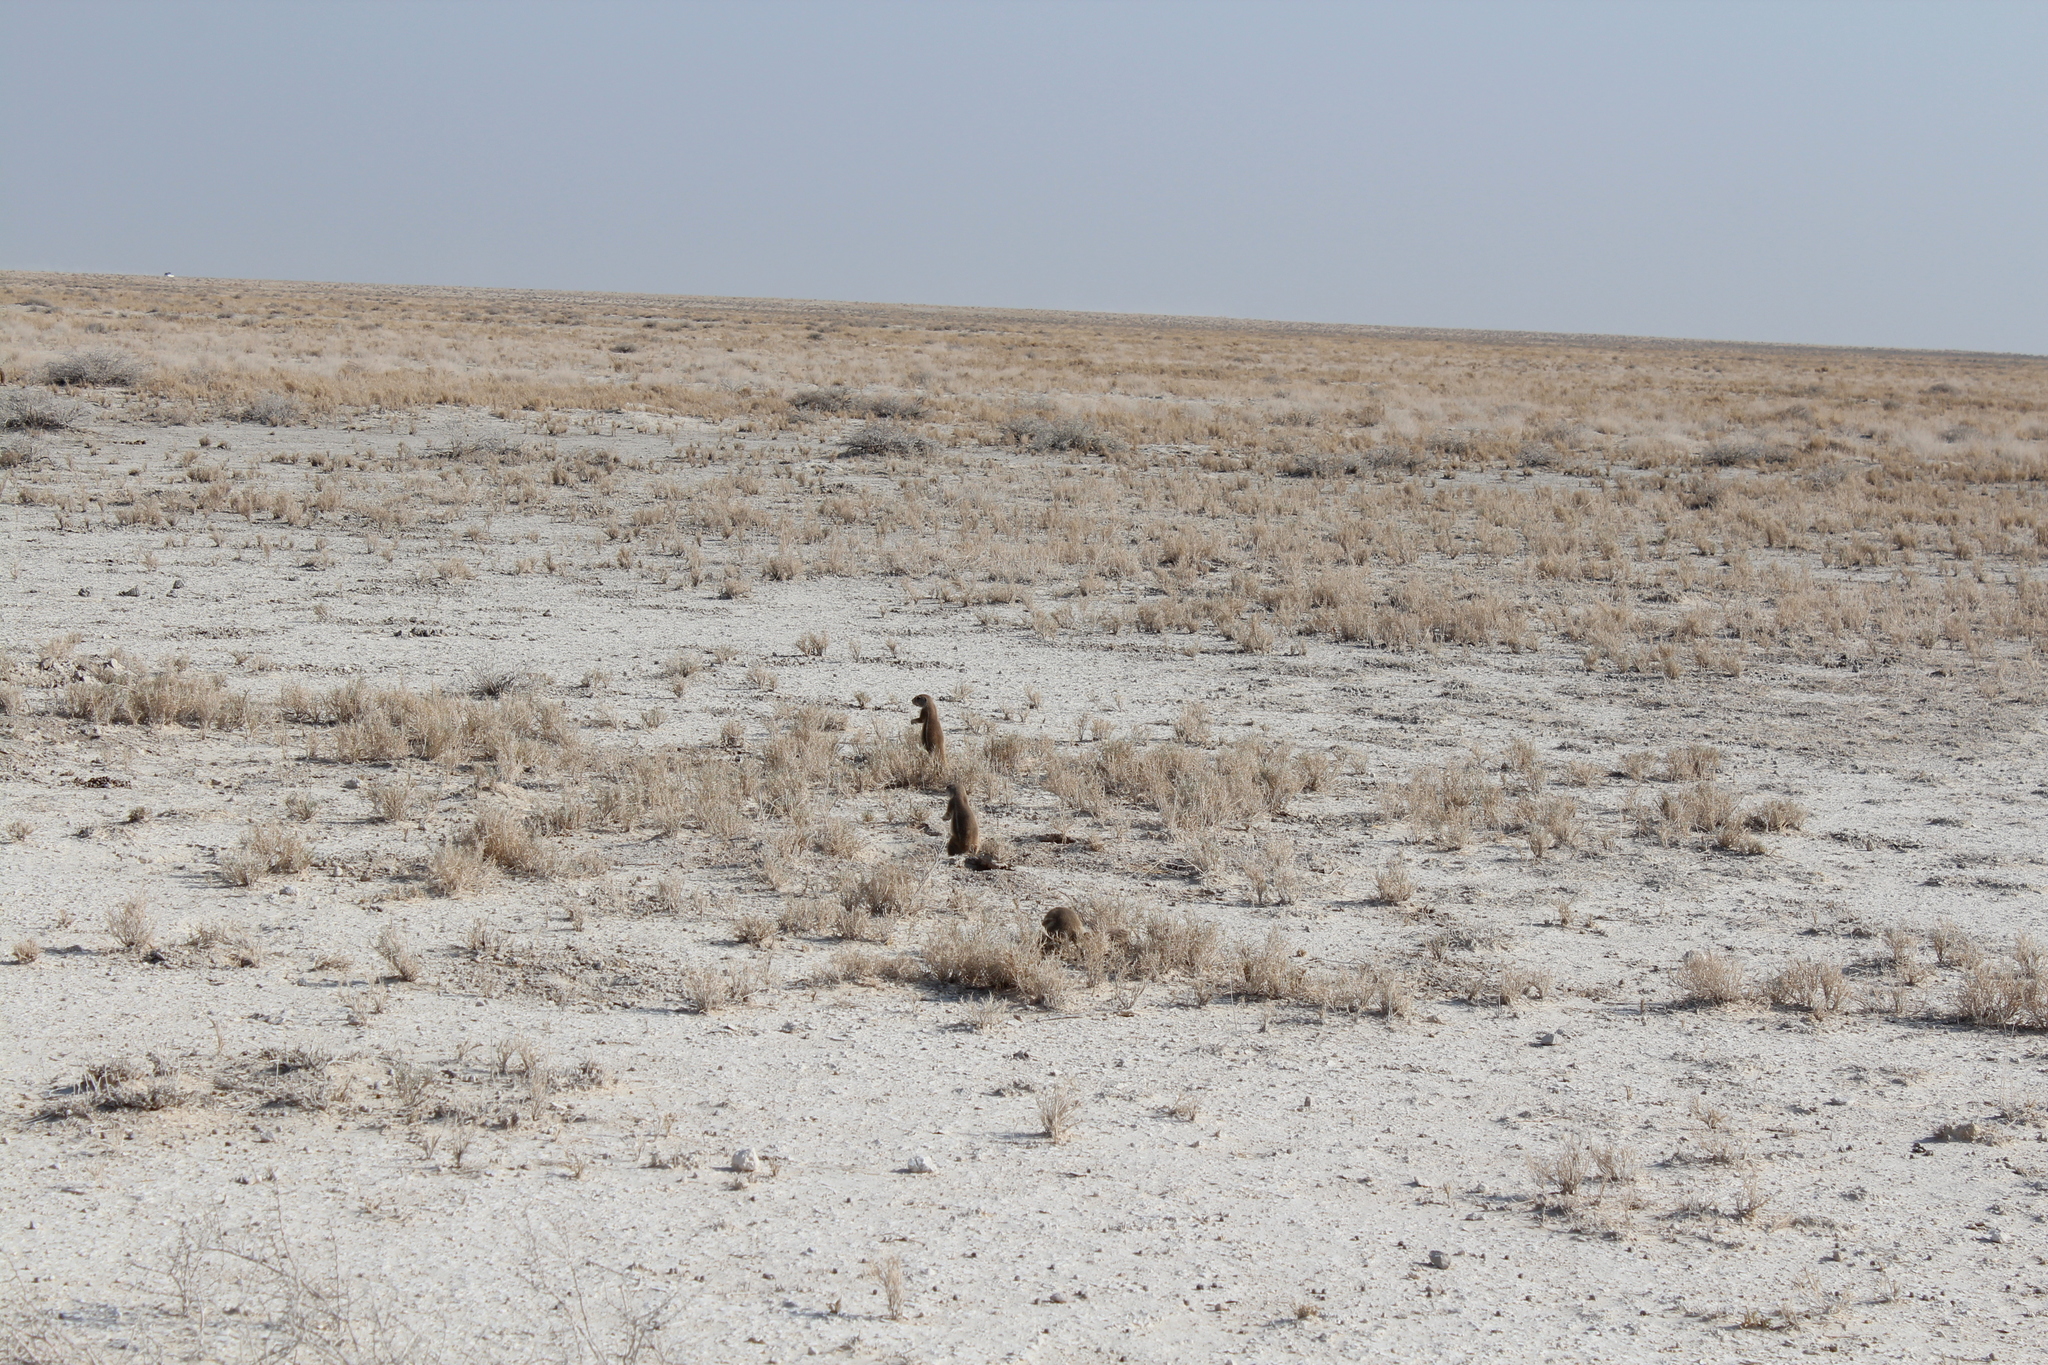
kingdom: Animalia
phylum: Chordata
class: Mammalia
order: Rodentia
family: Sciuridae
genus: Xerus
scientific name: Xerus inauris
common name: South african ground squirrel
